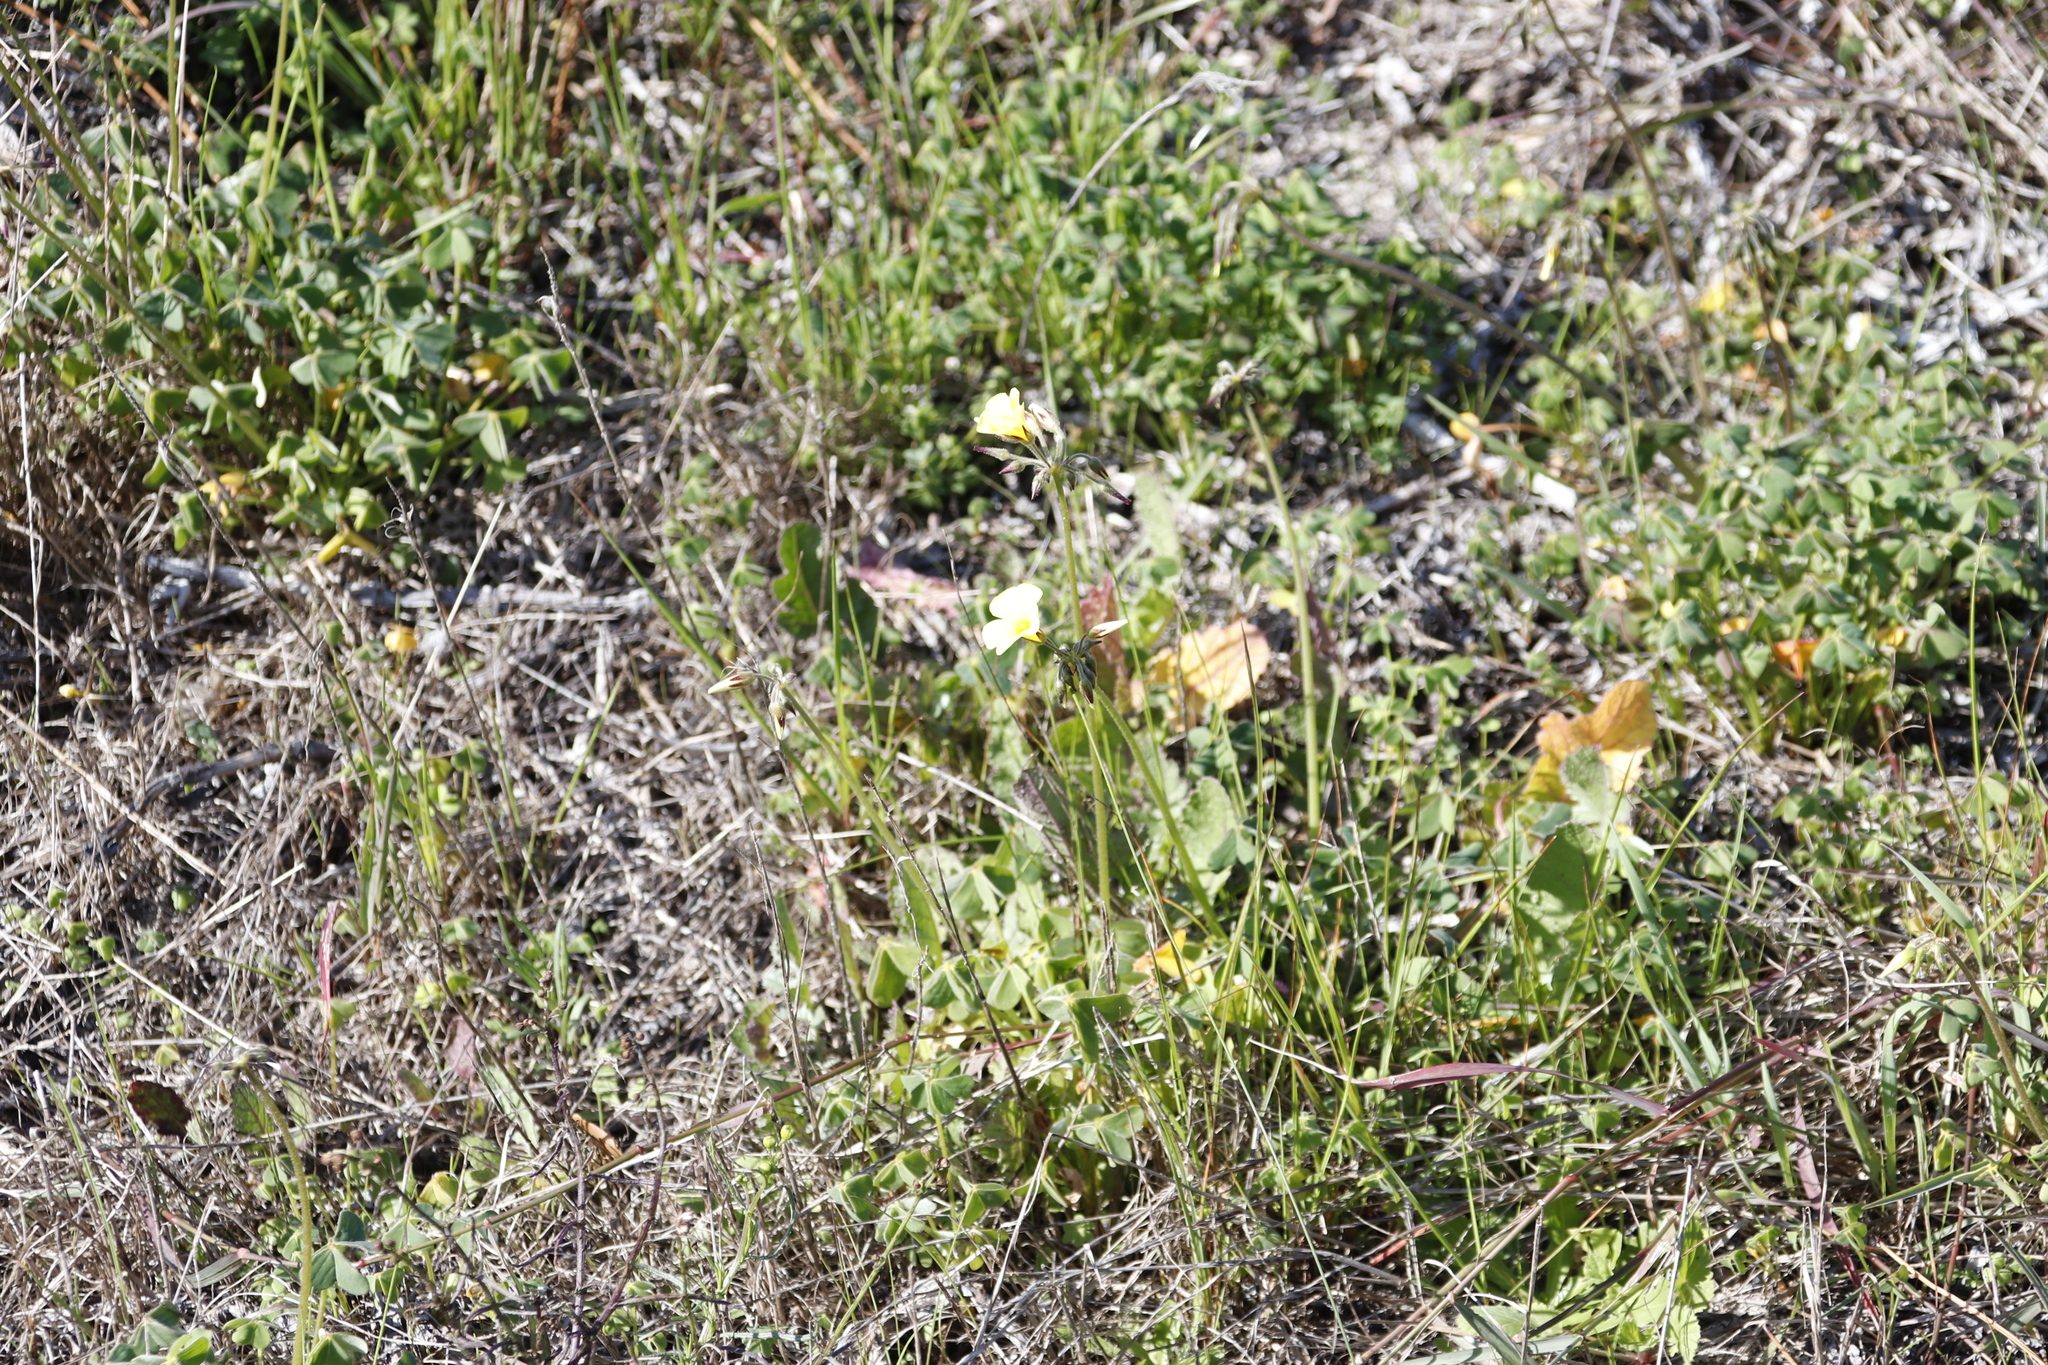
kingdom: Plantae
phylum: Tracheophyta
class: Magnoliopsida
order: Oxalidales
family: Oxalidaceae
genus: Oxalis
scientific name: Oxalis pes-caprae
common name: Bermuda-buttercup
